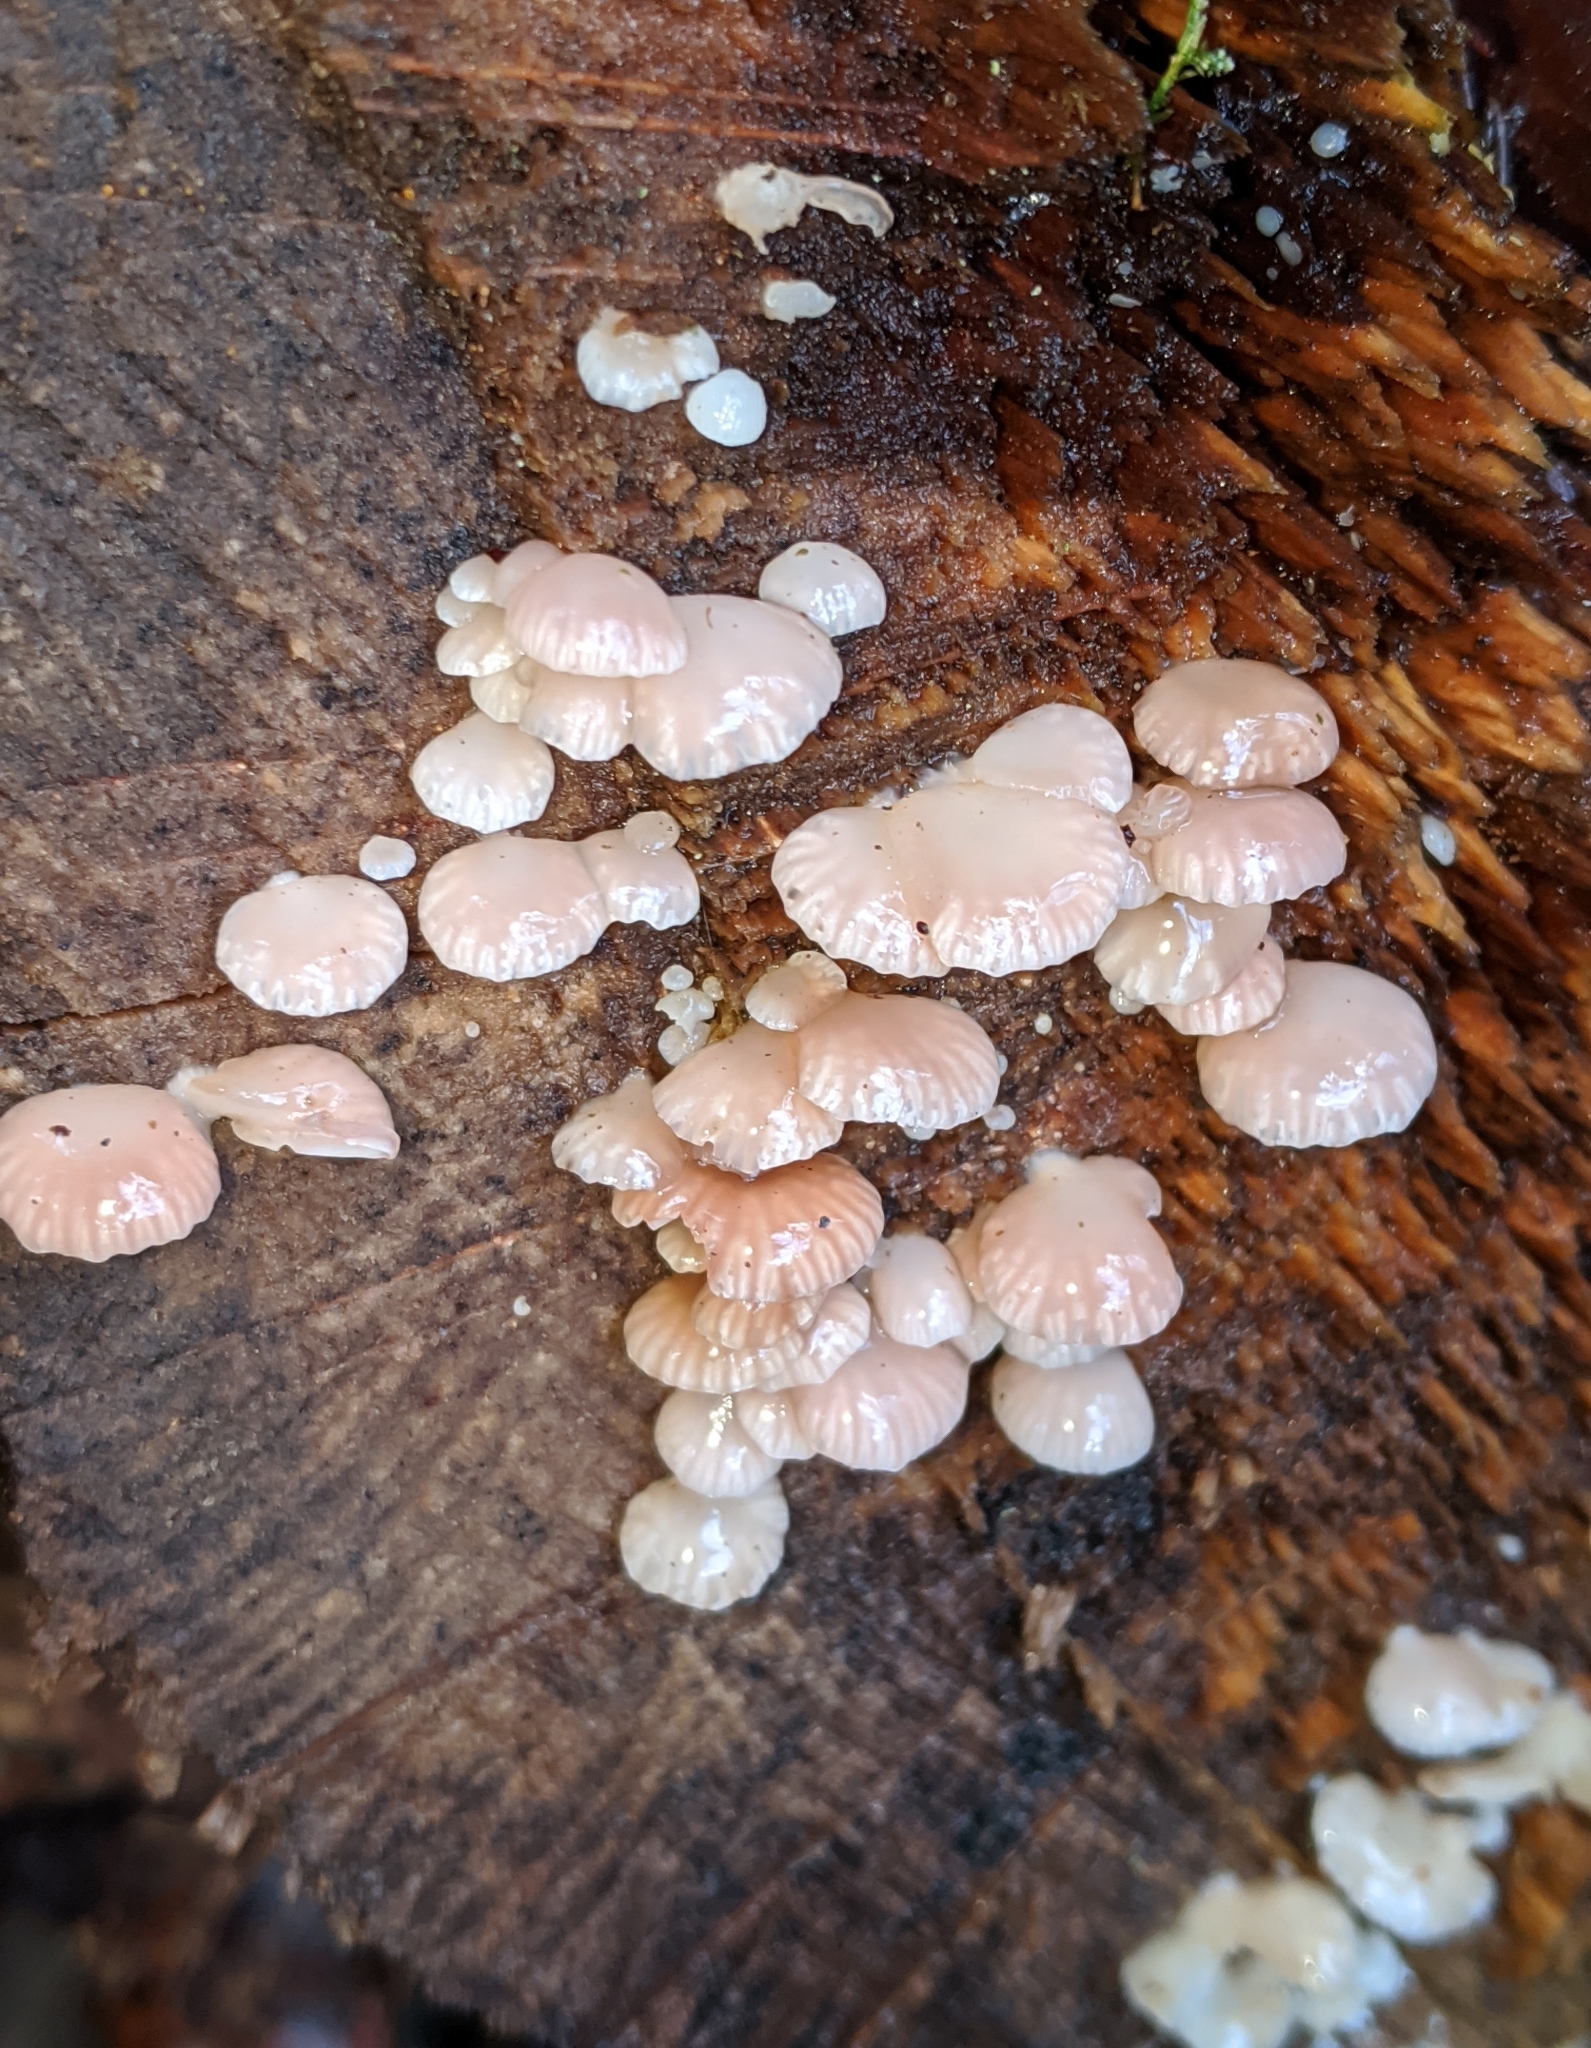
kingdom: Fungi
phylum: Basidiomycota
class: Agaricomycetes
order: Agaricales
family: Mycenaceae
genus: Panellus
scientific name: Panellus longinquus
